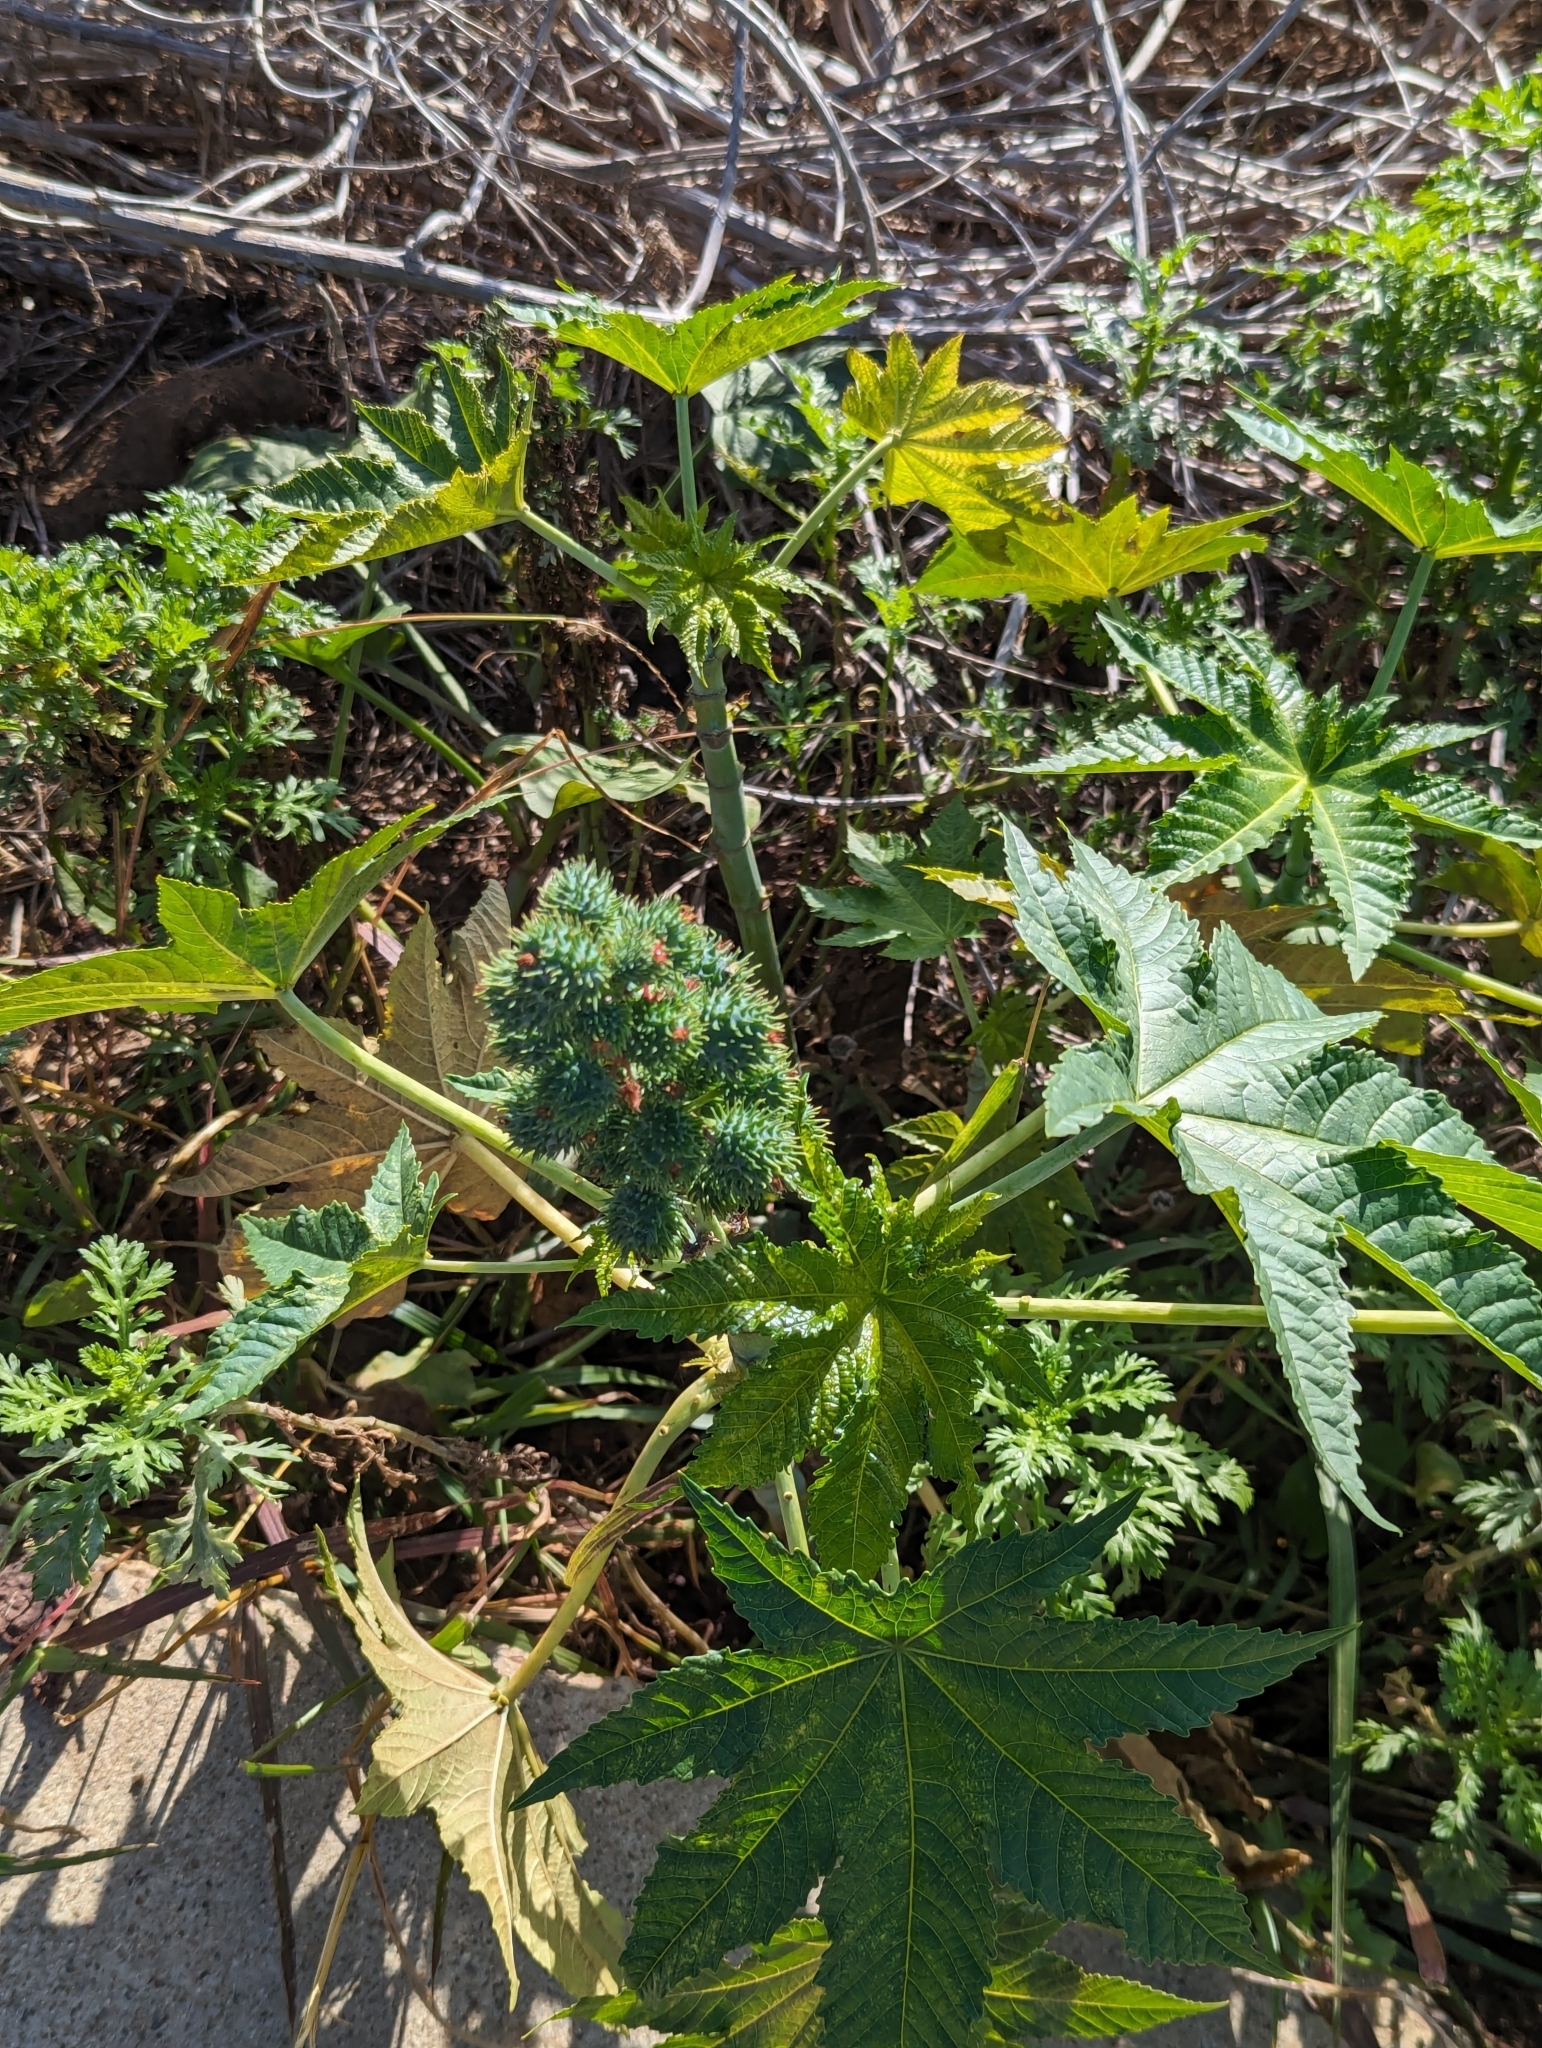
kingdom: Plantae
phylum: Tracheophyta
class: Magnoliopsida
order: Malpighiales
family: Euphorbiaceae
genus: Ricinus
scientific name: Ricinus communis
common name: Castor-oil-plant
